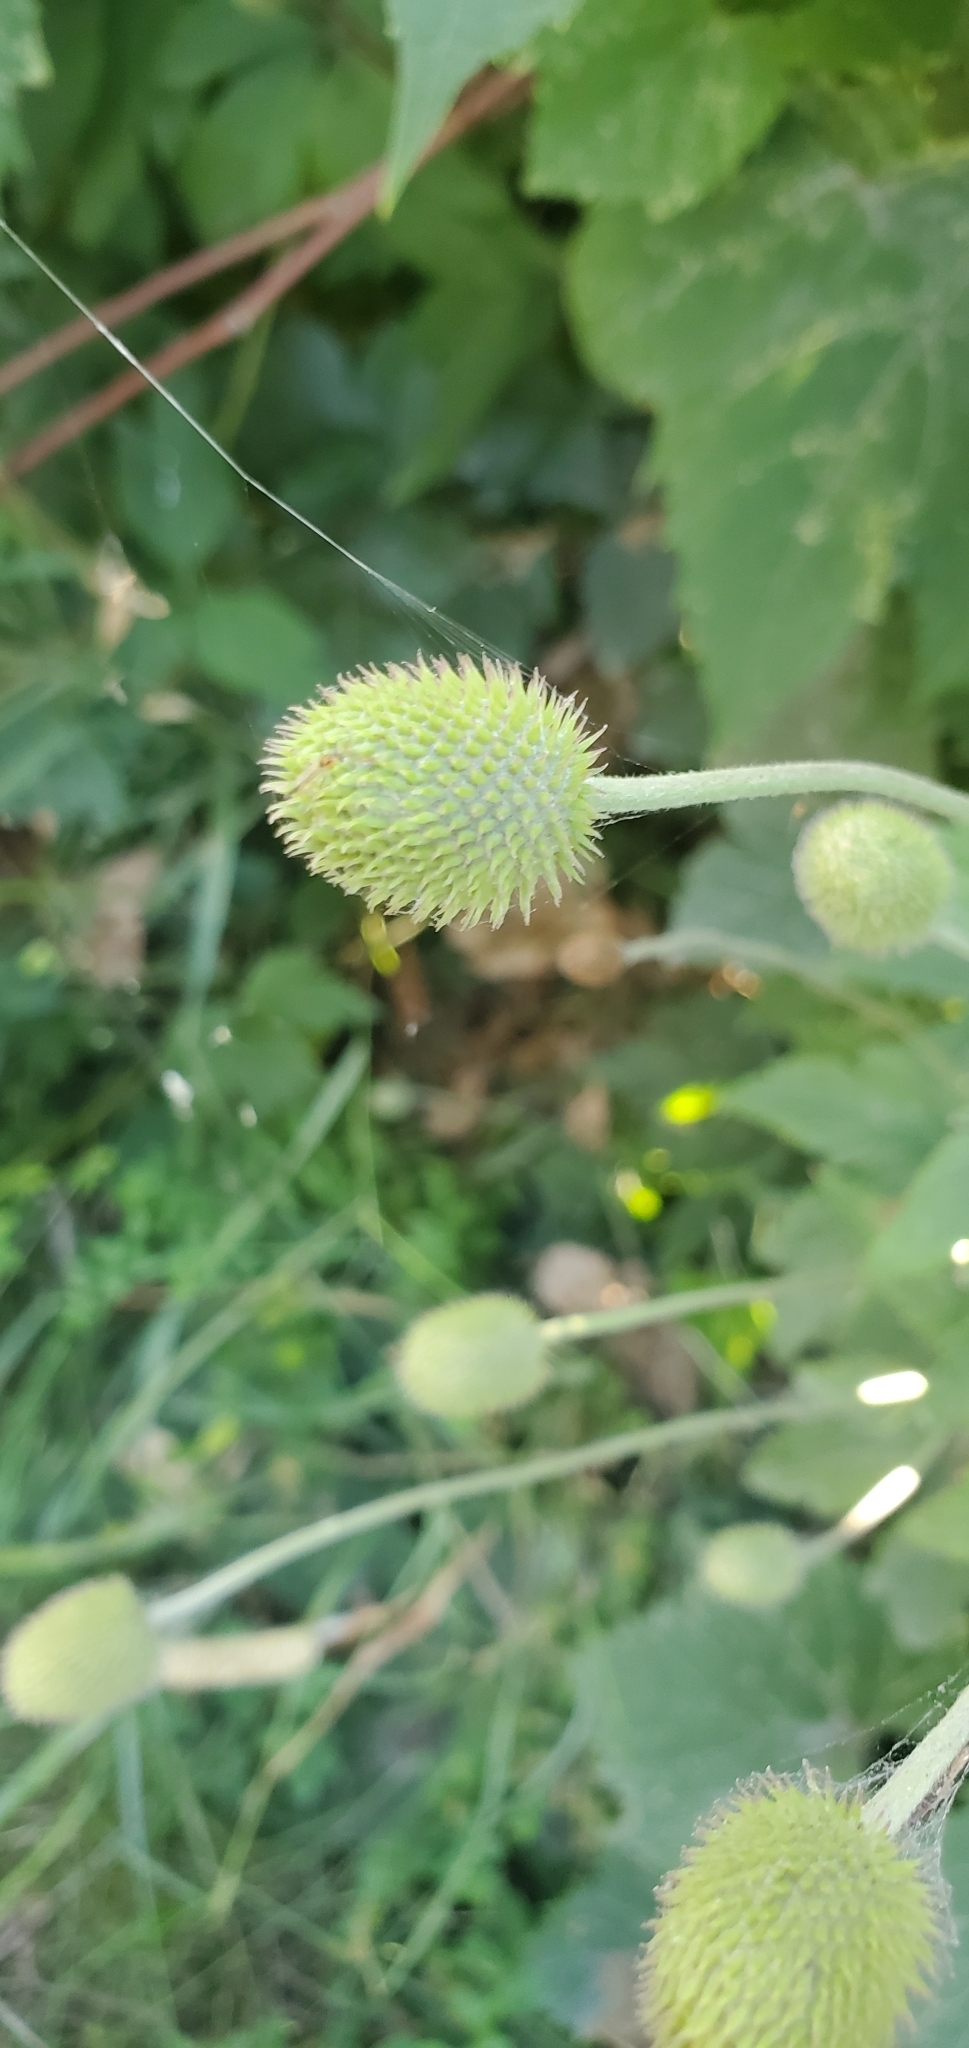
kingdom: Plantae
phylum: Tracheophyta
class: Magnoliopsida
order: Ranunculales
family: Ranunculaceae
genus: Anemone
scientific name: Anemone virginiana
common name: Tall anemone
